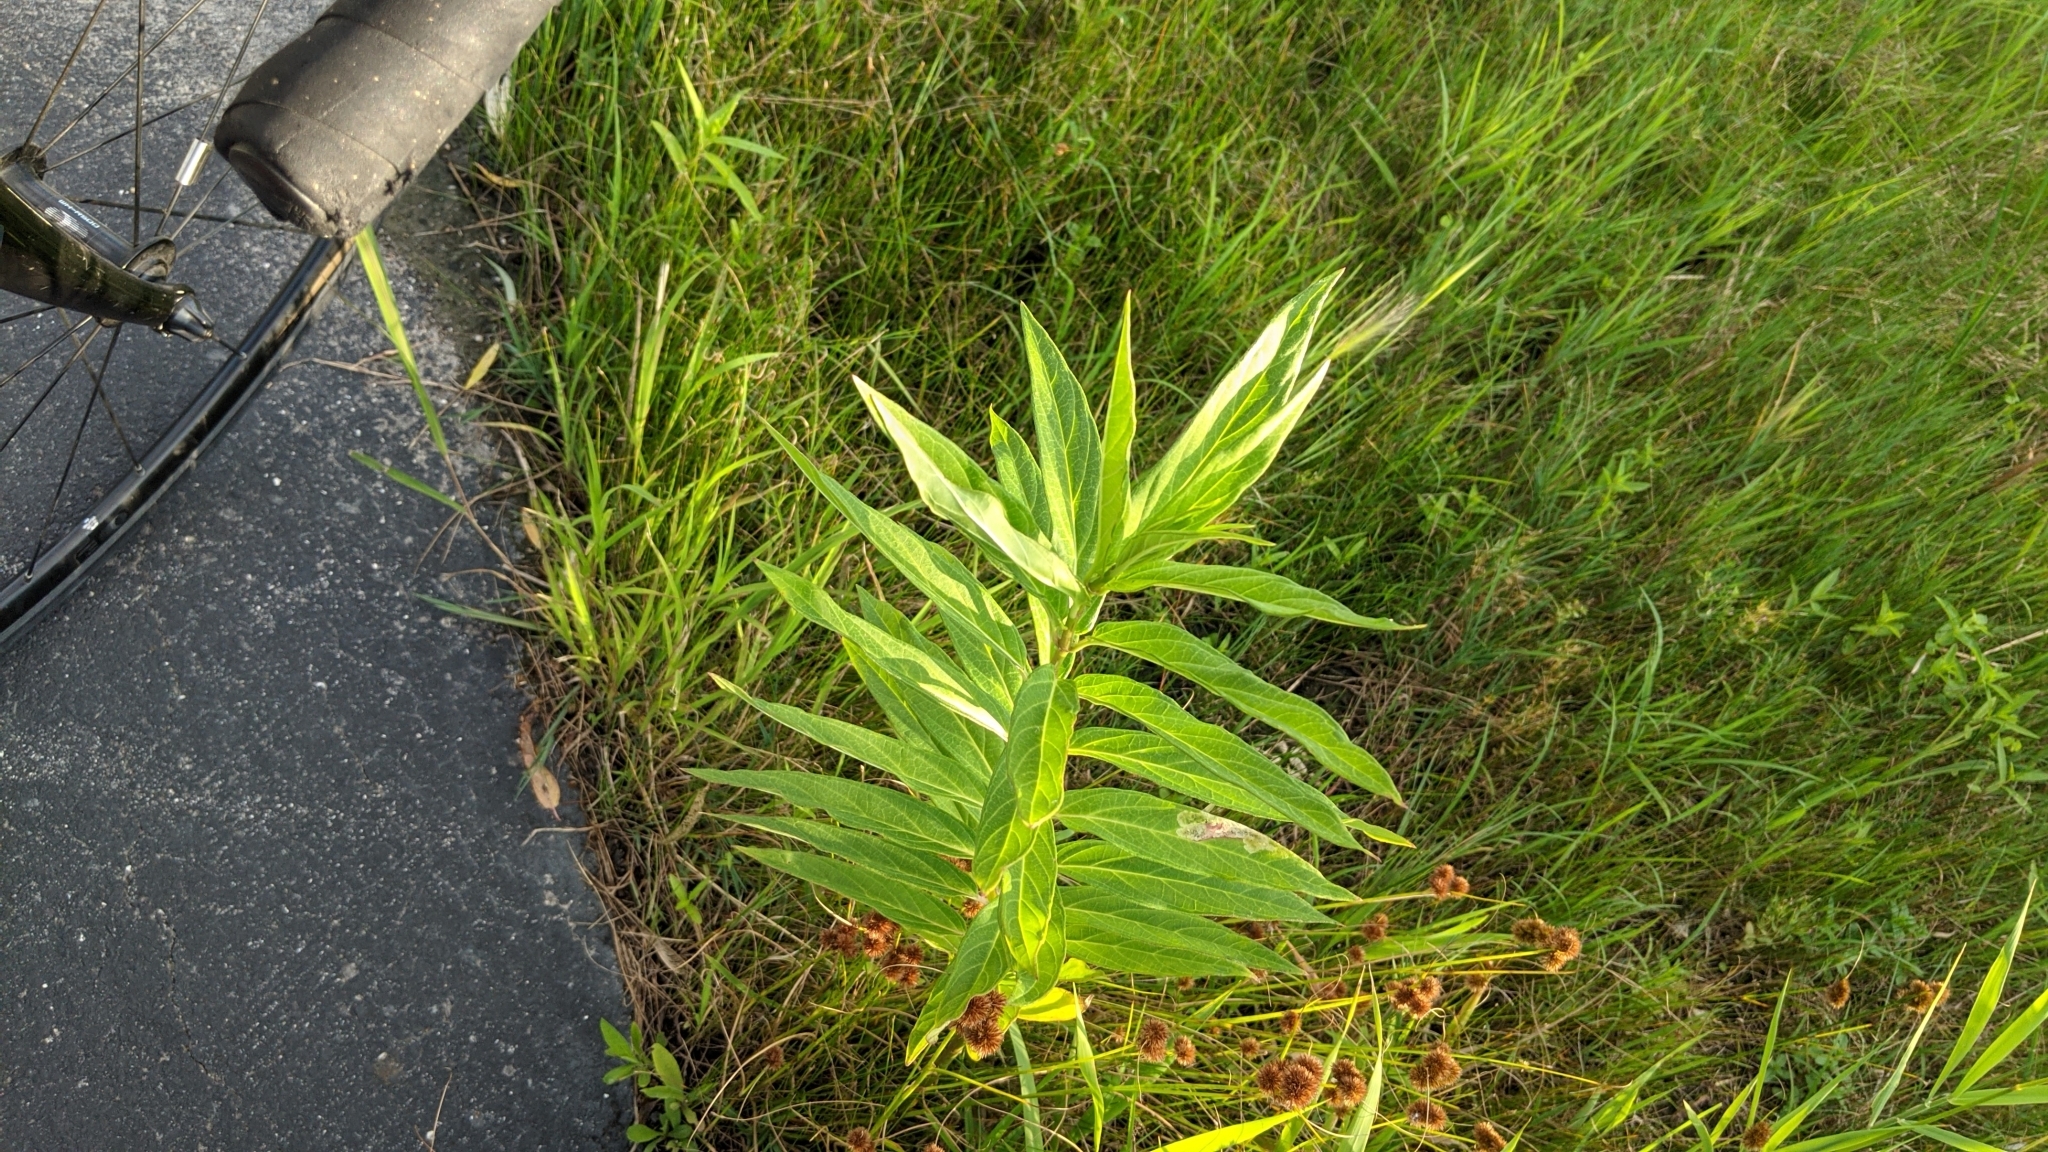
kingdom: Animalia
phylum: Arthropoda
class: Insecta
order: Diptera
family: Agromyzidae
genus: Liriomyza
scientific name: Liriomyza asclepiadis
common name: Milkweed leaf-miner fly
